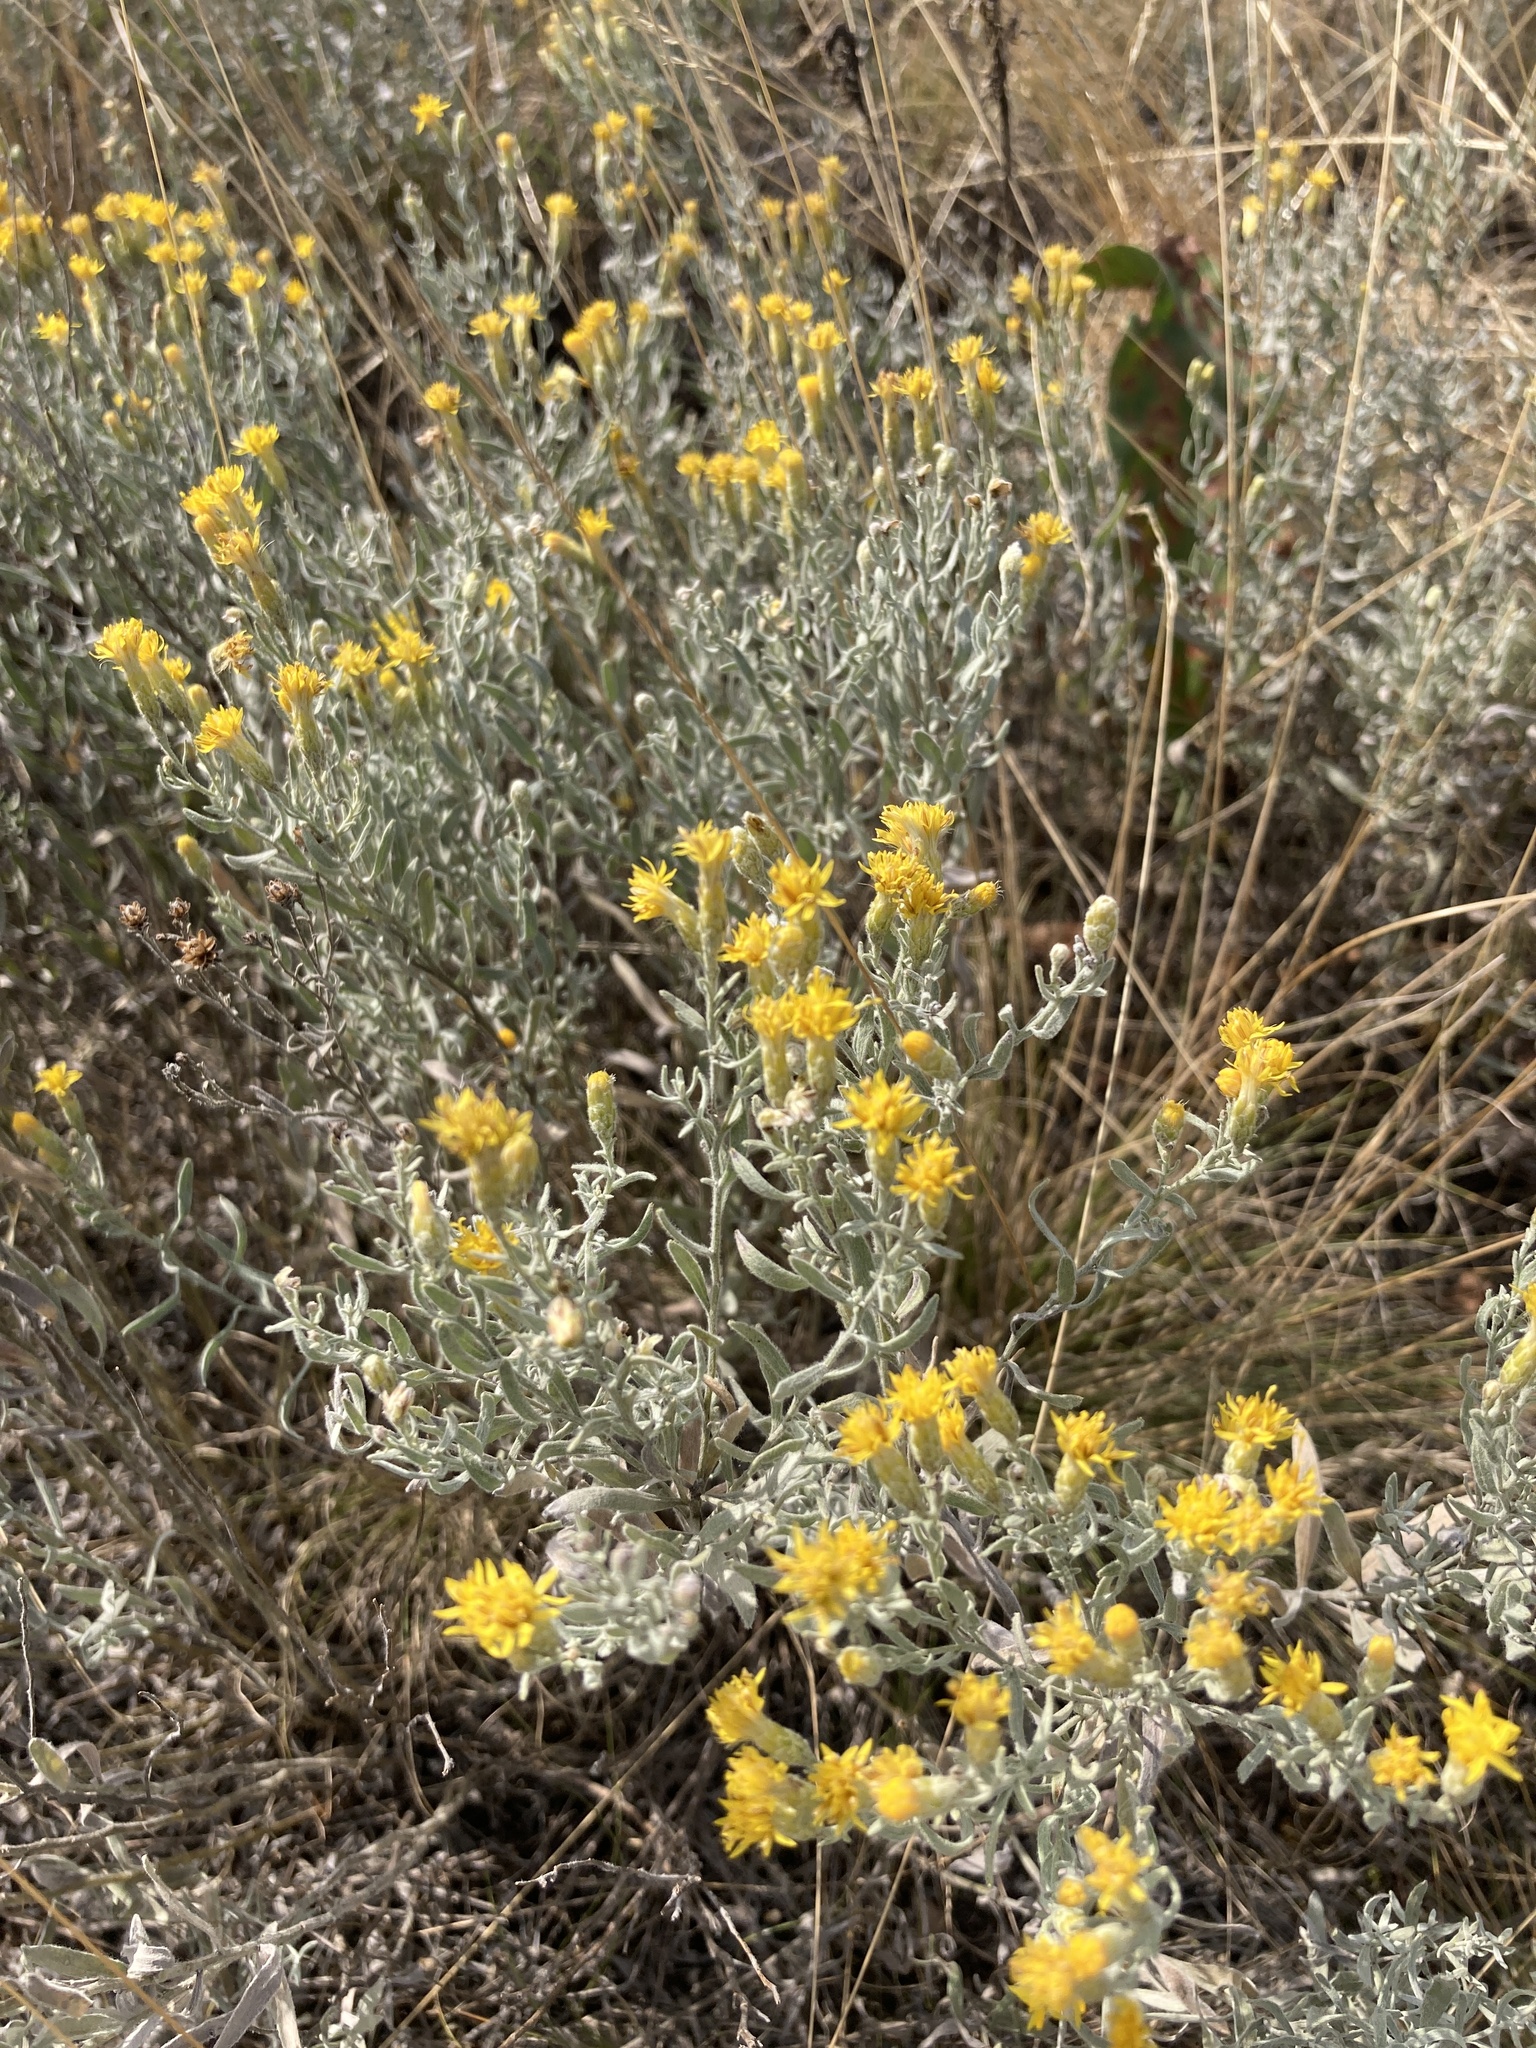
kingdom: Plantae
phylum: Tracheophyta
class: Magnoliopsida
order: Asterales
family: Asteraceae
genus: Galatella
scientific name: Galatella villosa
